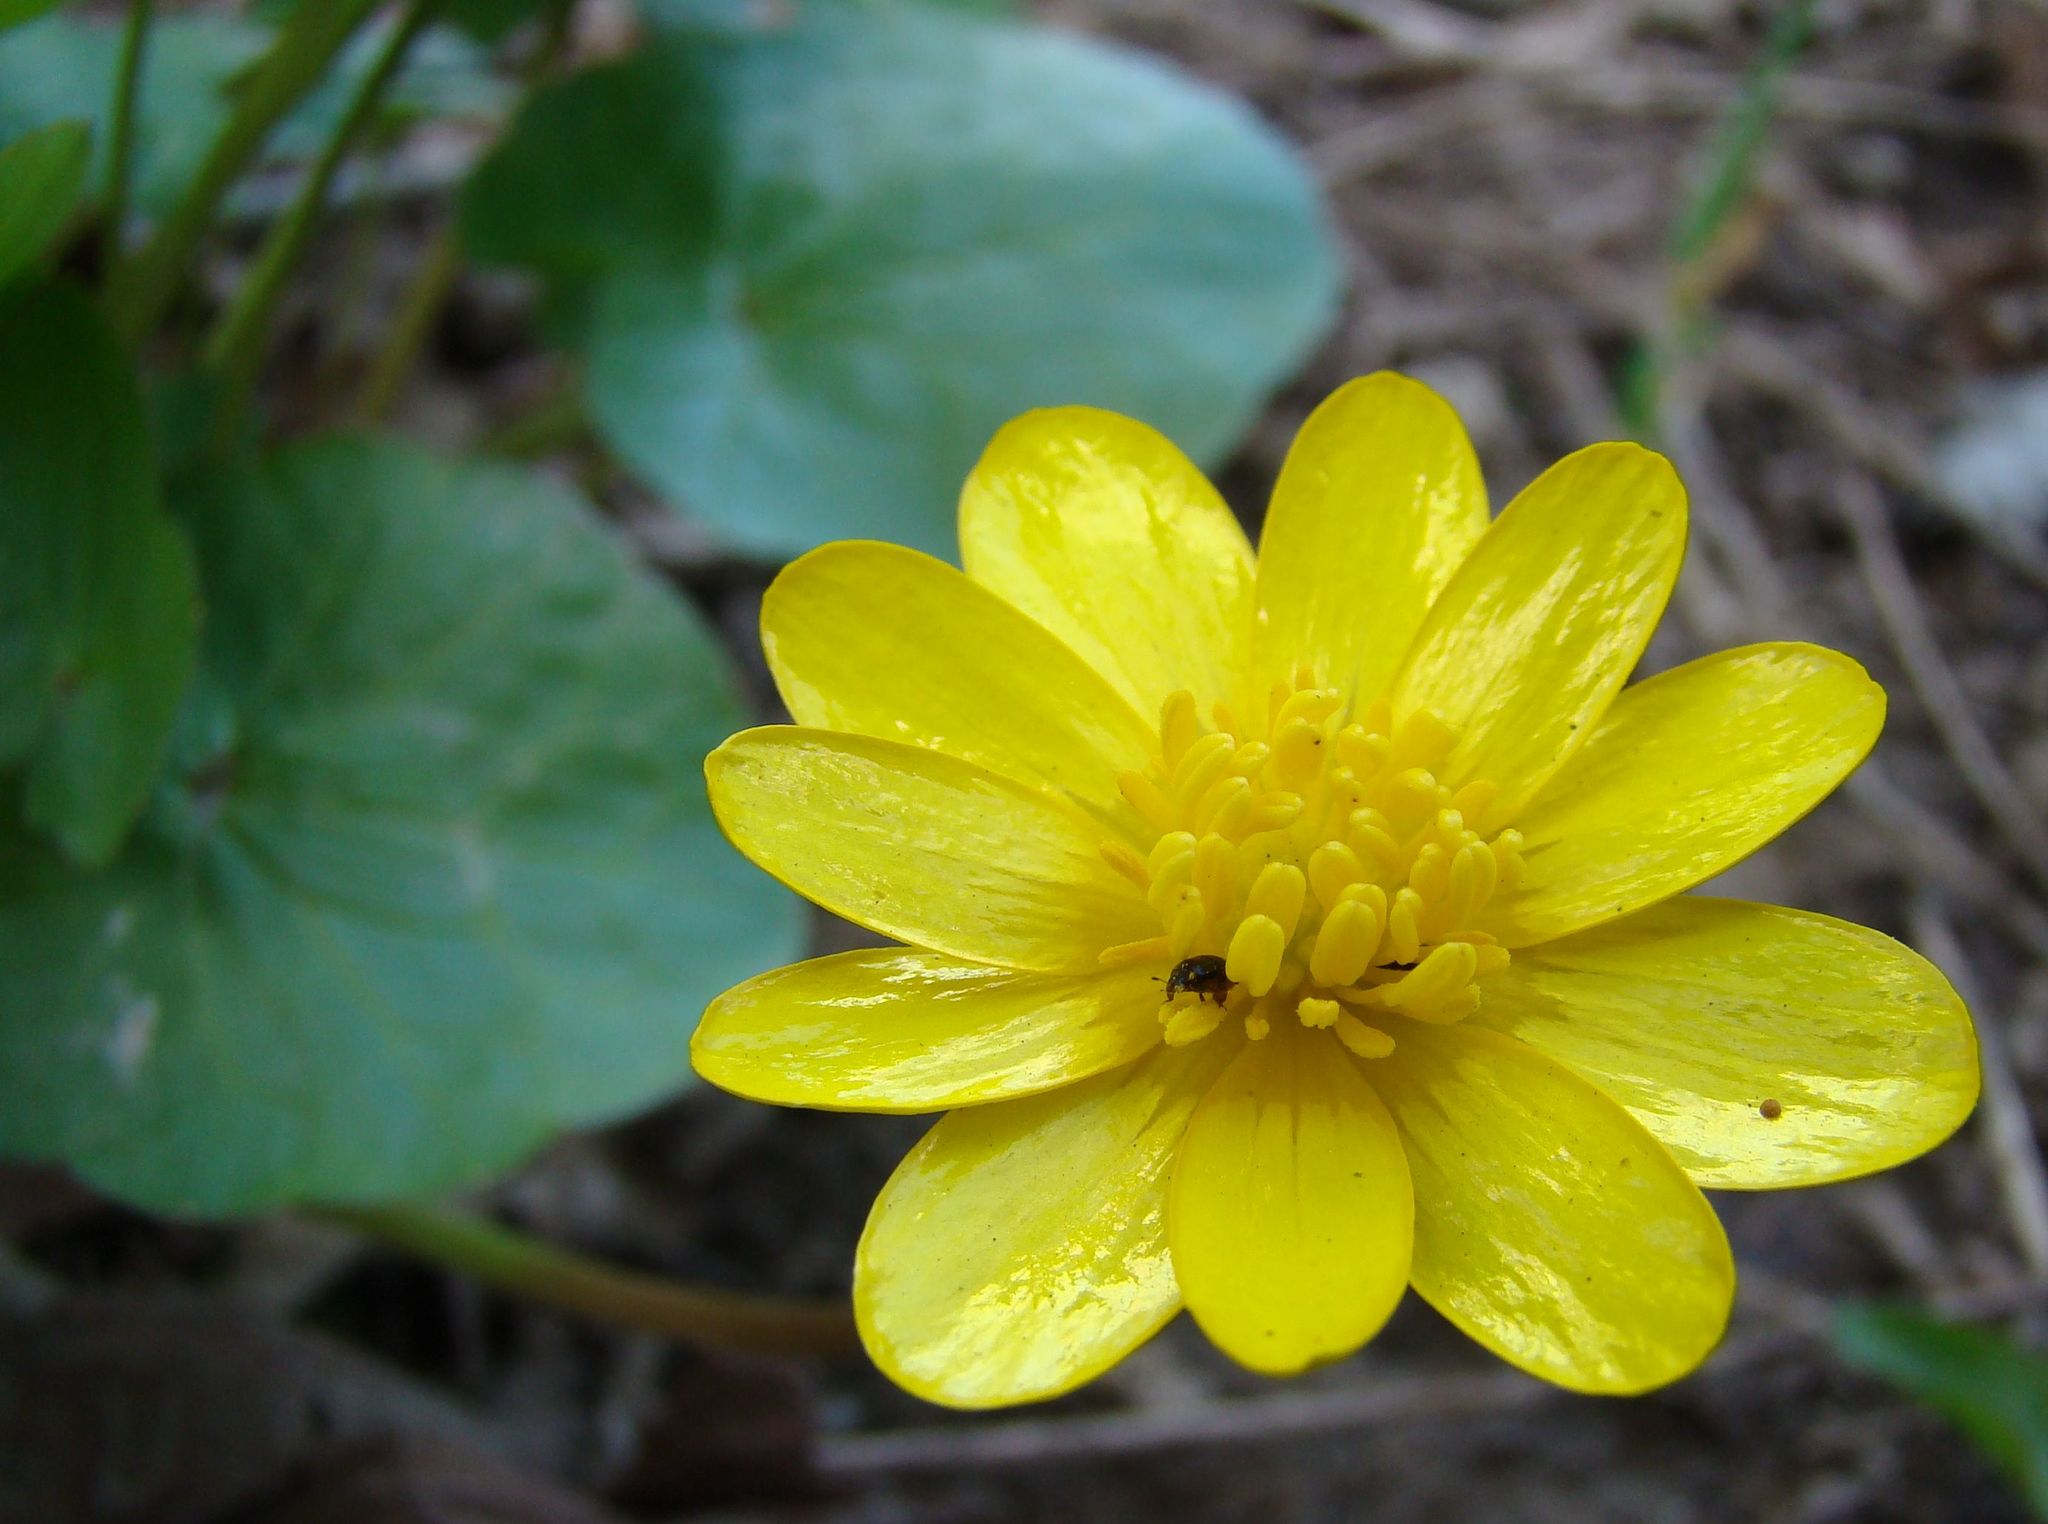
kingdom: Plantae
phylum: Tracheophyta
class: Magnoliopsida
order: Ranunculales
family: Ranunculaceae
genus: Ficaria
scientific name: Ficaria verna
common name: Lesser celandine
